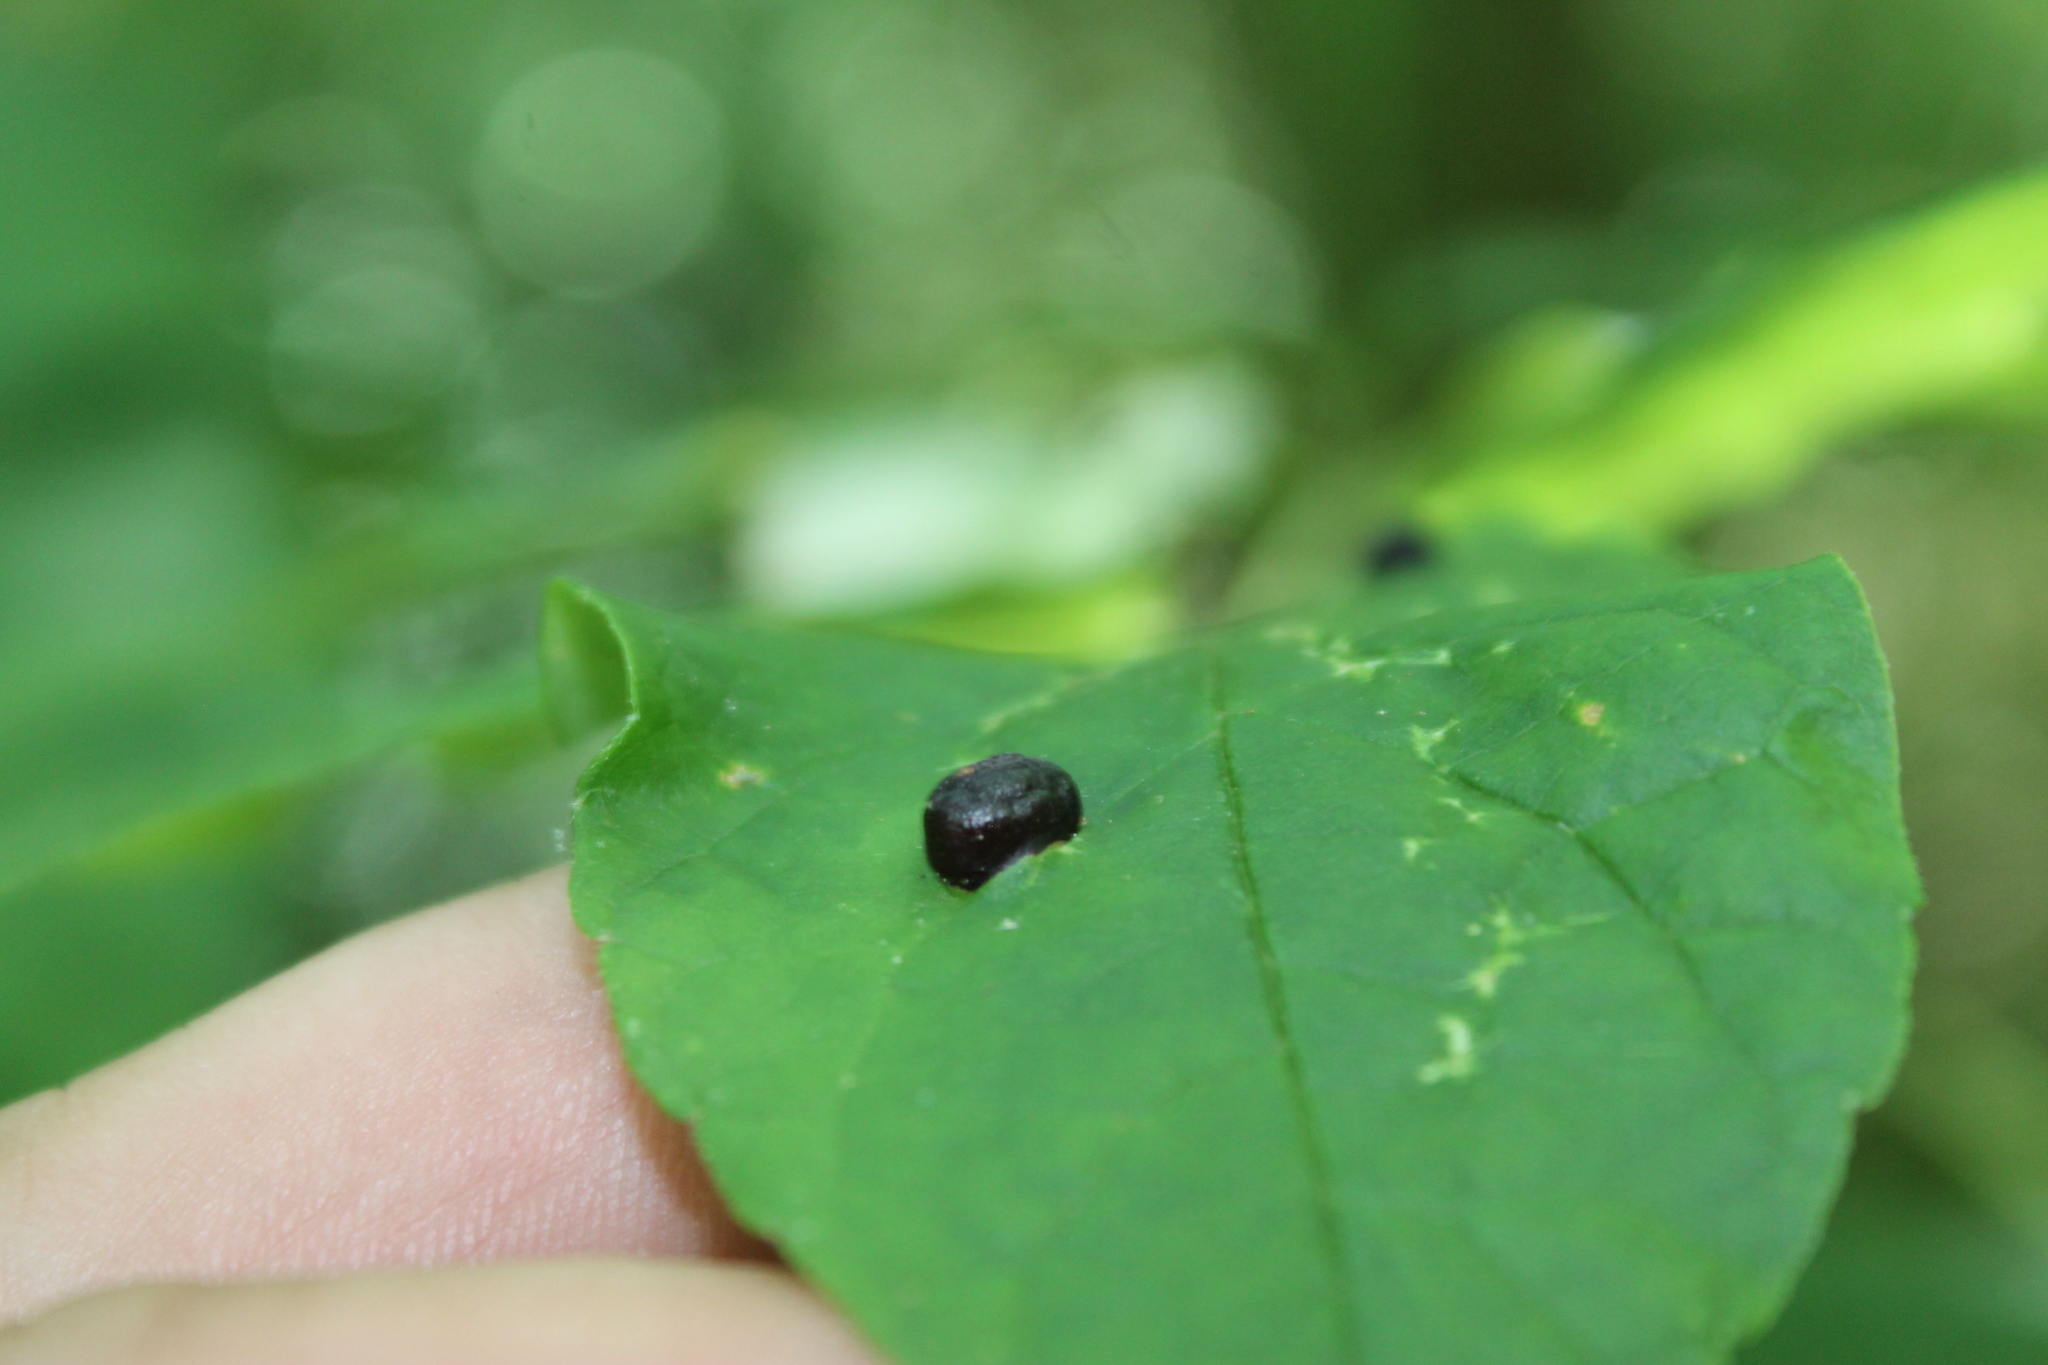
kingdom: Animalia
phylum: Arthropoda
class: Insecta
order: Diptera
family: Cecidomyiidae
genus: Dasineura
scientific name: Dasineura pellex
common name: Ash bullet gall midge
